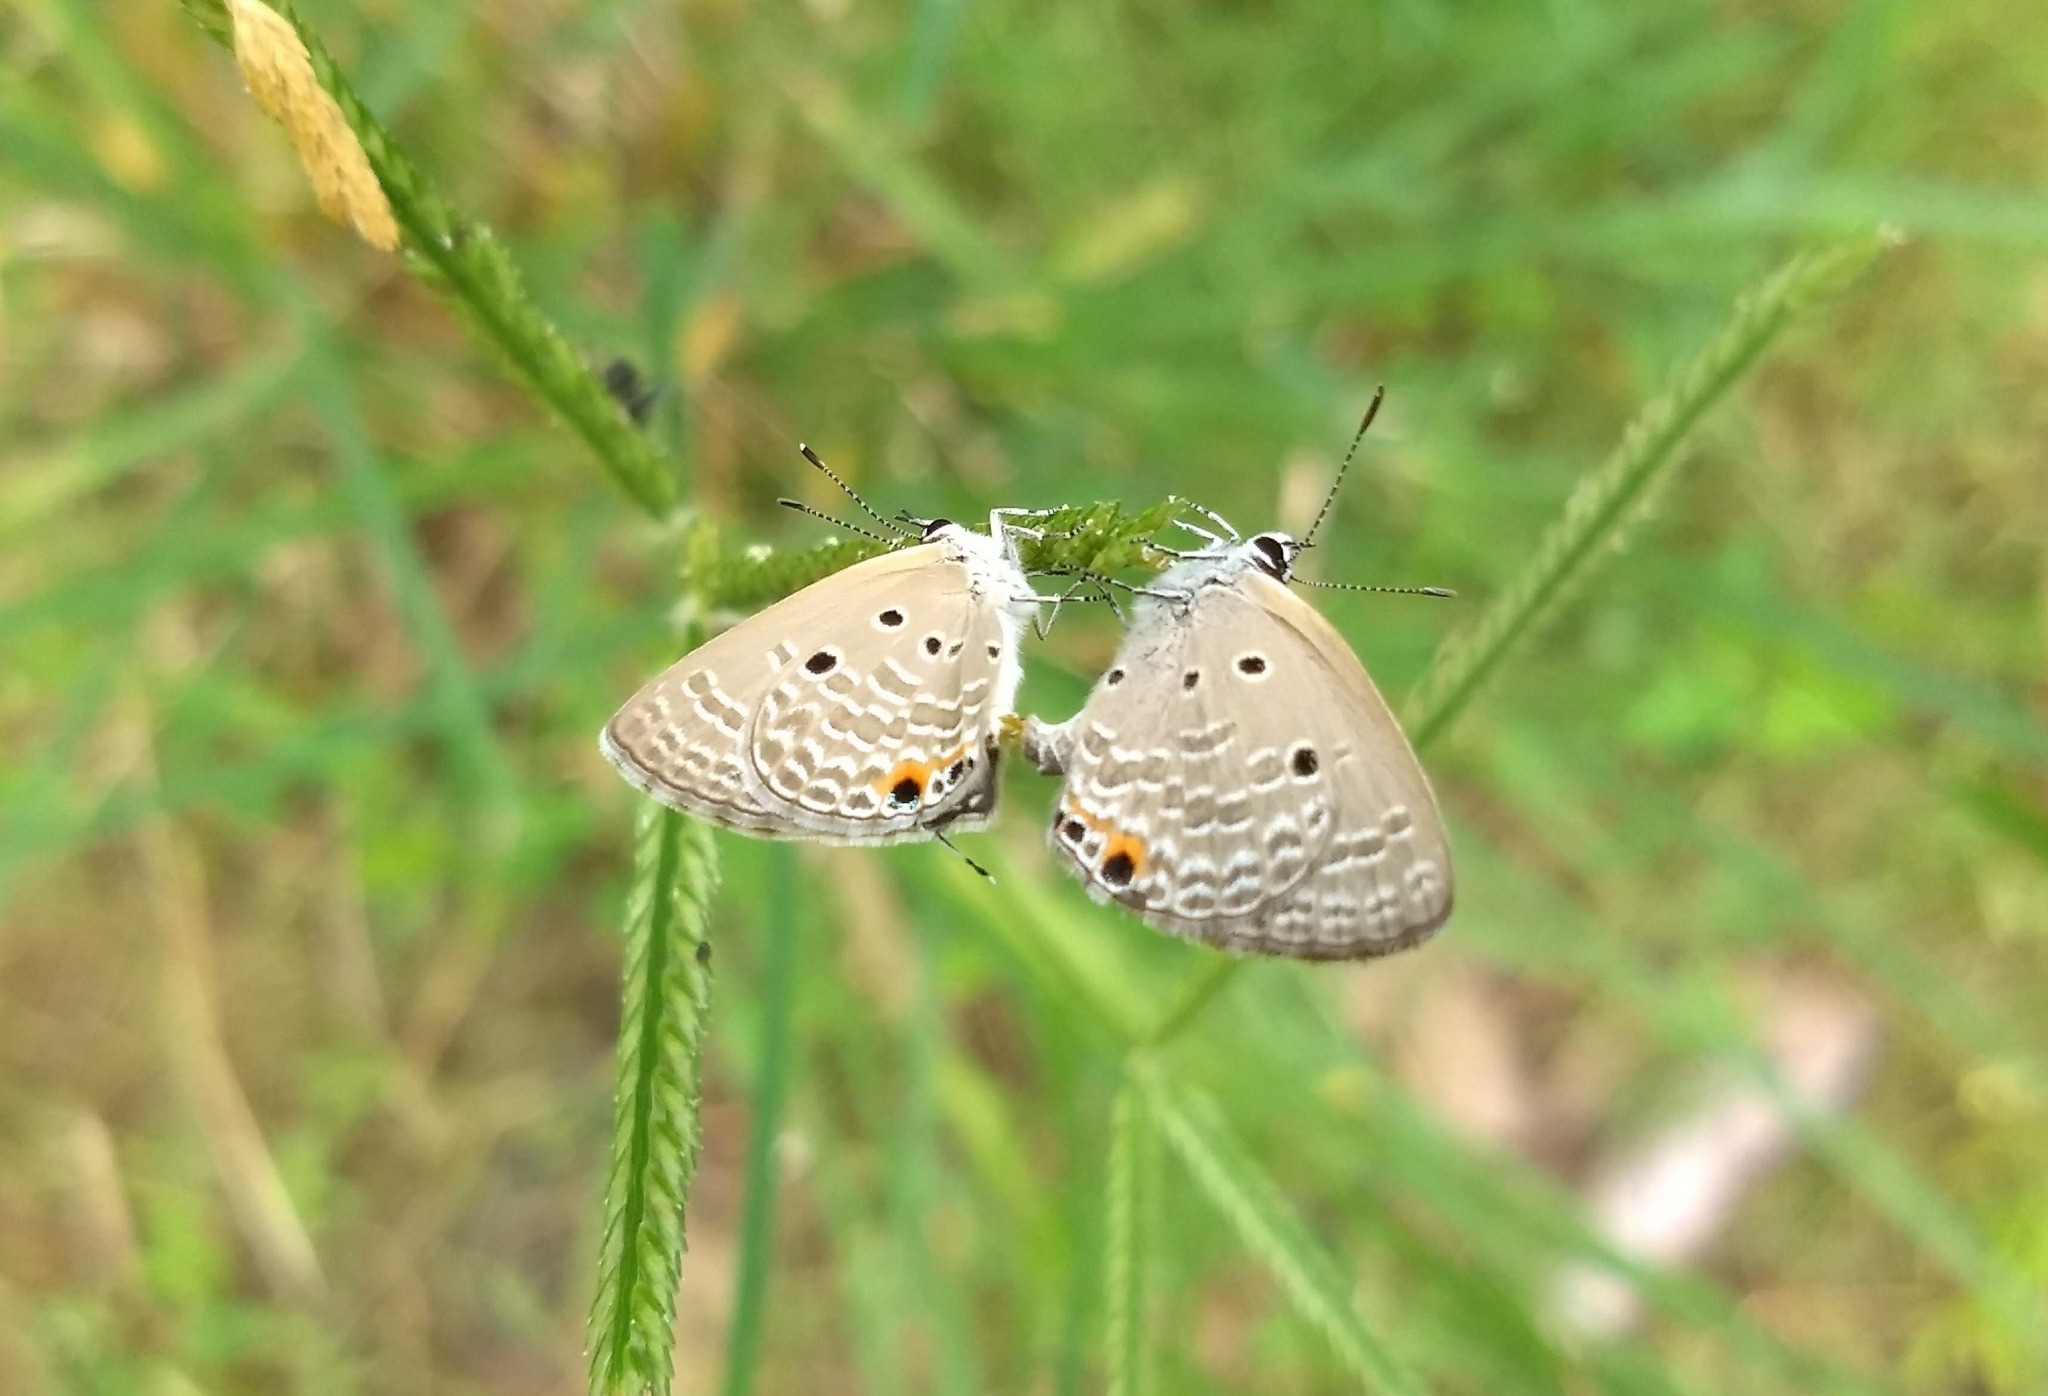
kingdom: Animalia
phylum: Arthropoda
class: Insecta
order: Lepidoptera
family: Lycaenidae
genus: Luthrodes
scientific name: Luthrodes pandava
